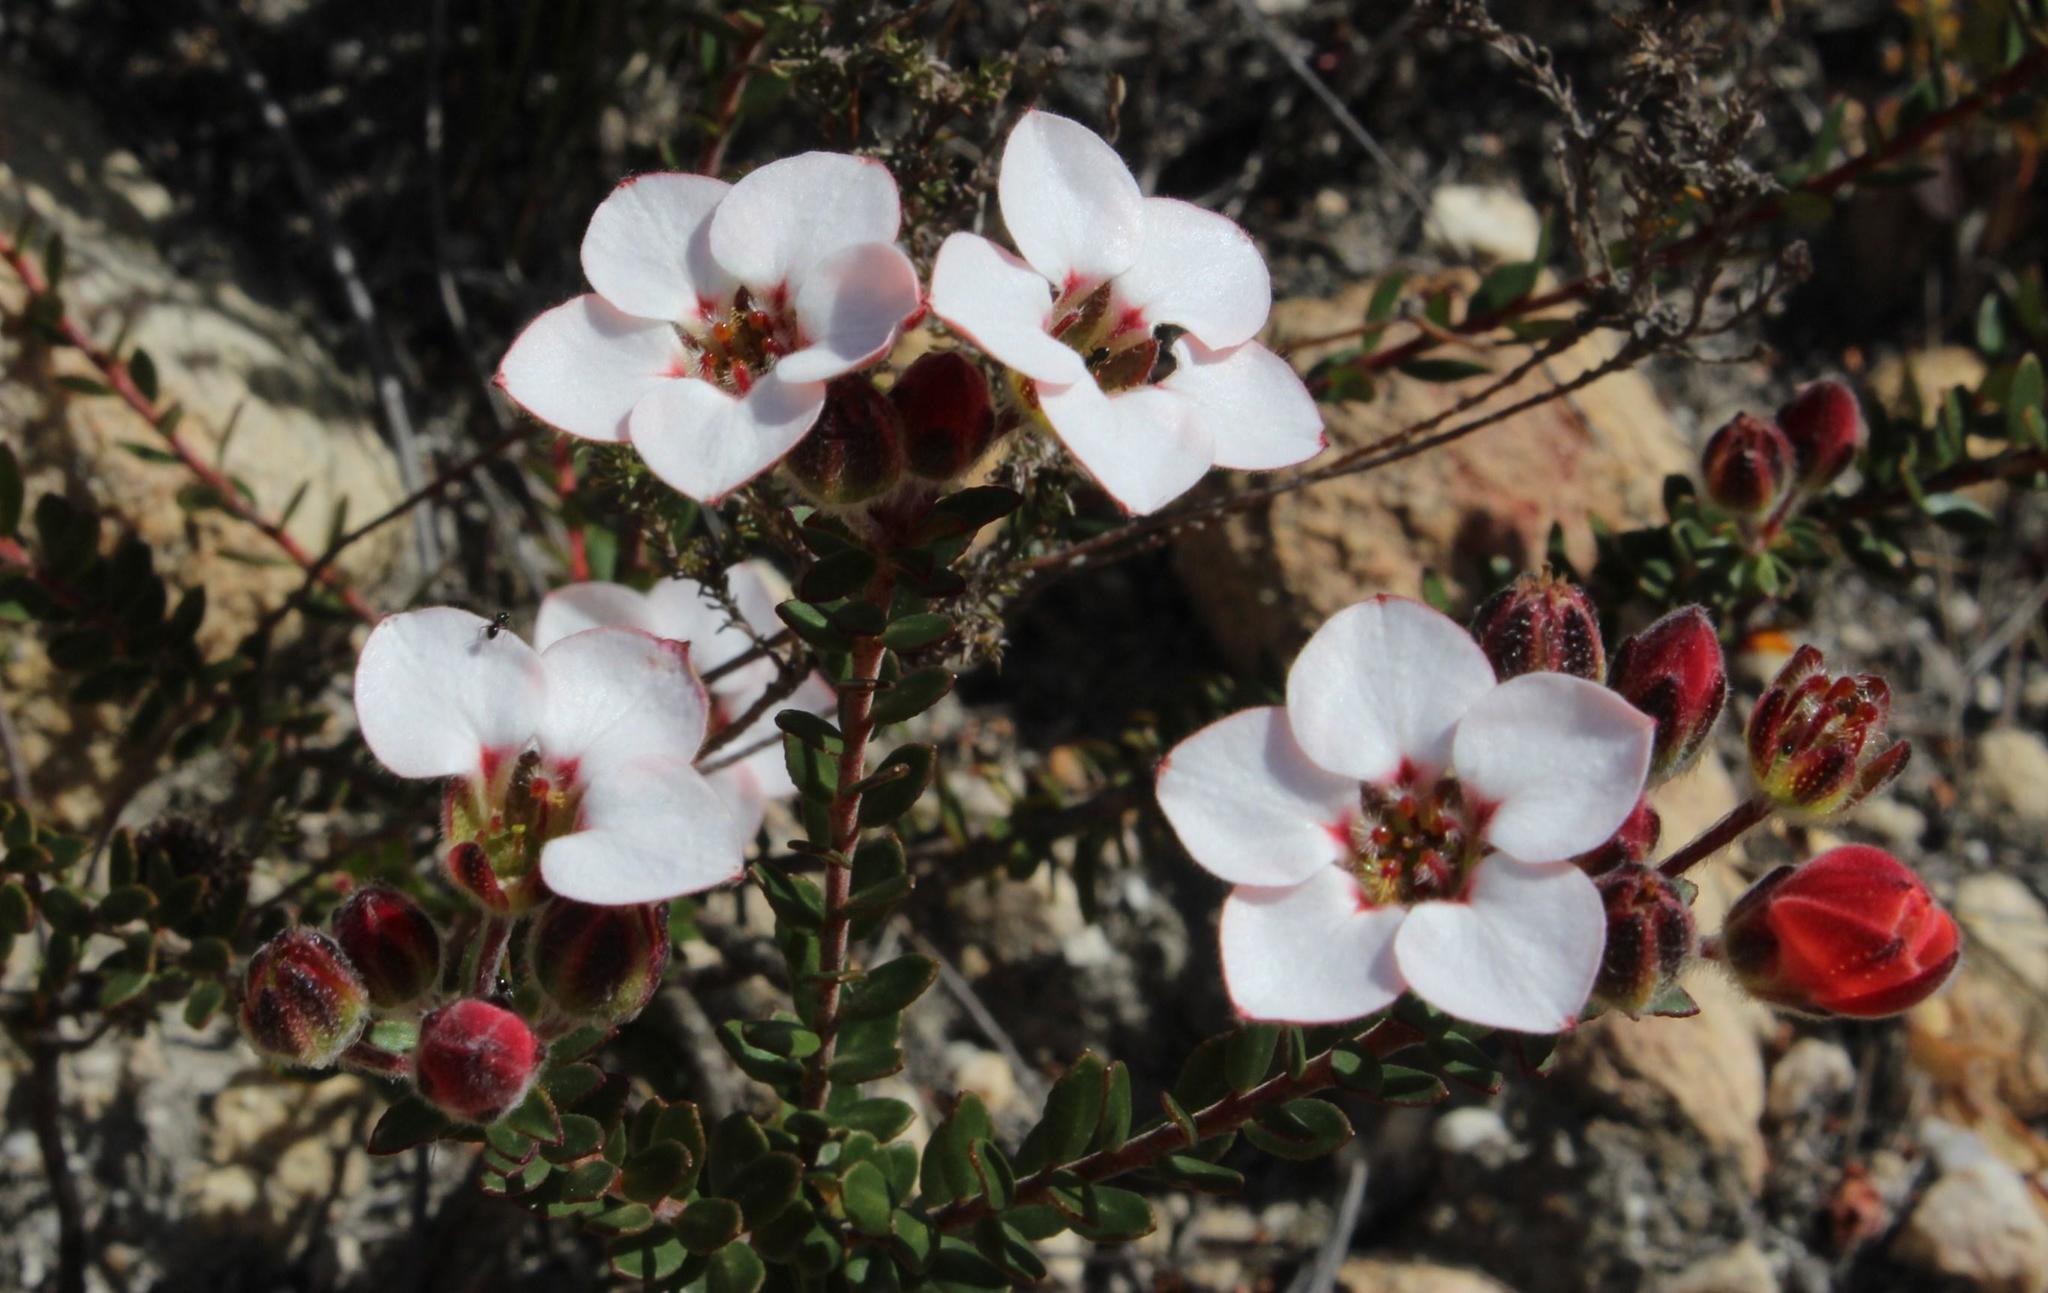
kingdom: Plantae
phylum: Tracheophyta
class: Magnoliopsida
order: Sapindales
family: Rutaceae
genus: Adenandra
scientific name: Adenandra viscida
